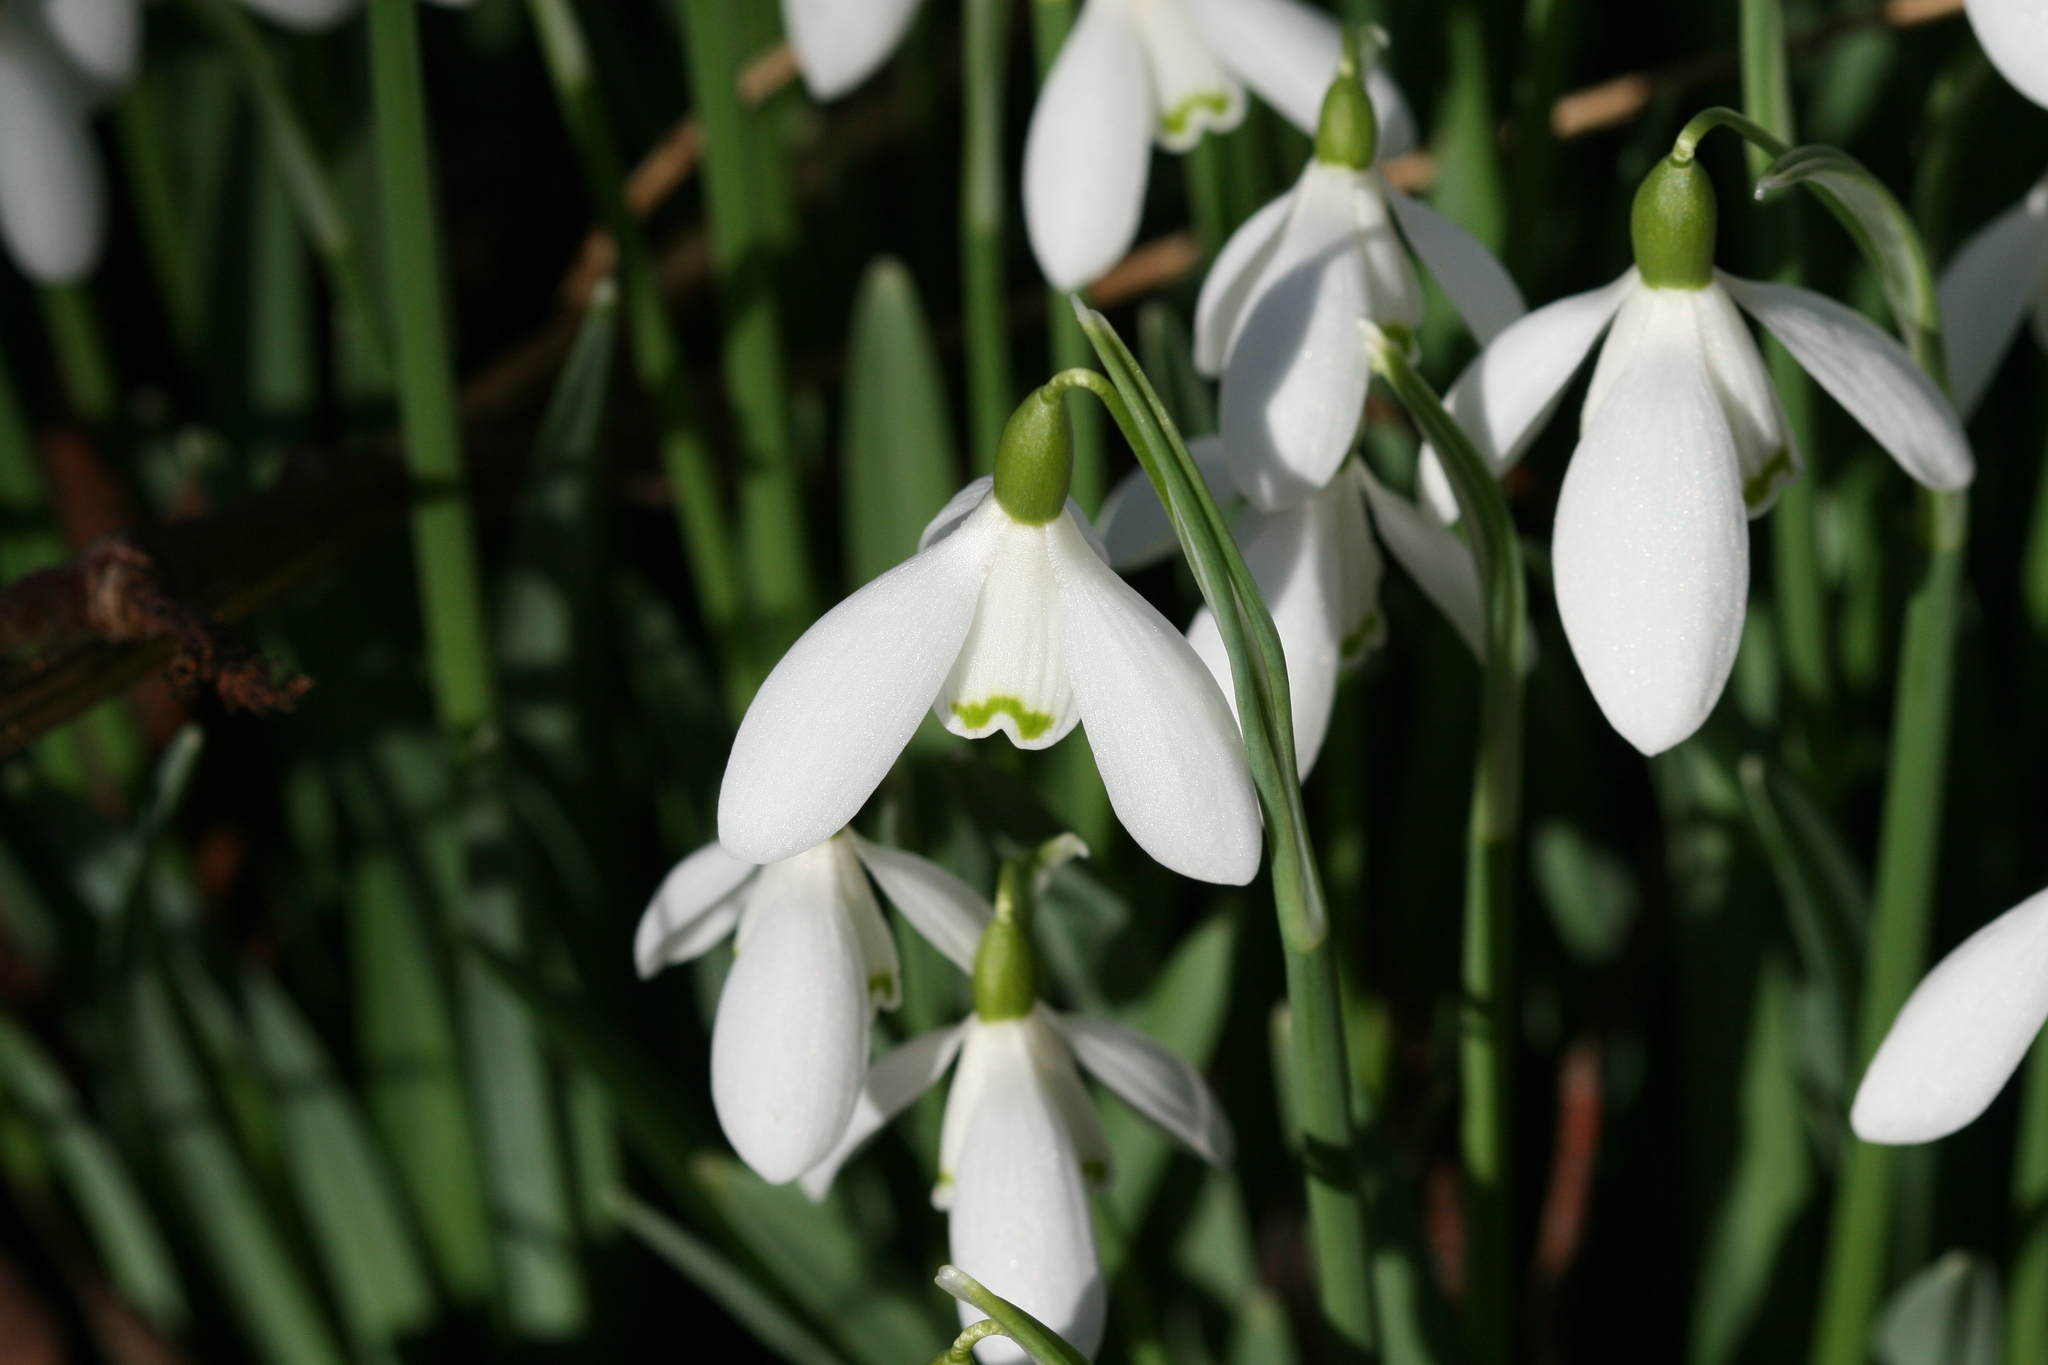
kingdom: Plantae
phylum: Tracheophyta
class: Liliopsida
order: Asparagales
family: Amaryllidaceae
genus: Galanthus
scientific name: Galanthus nivalis
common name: Snowdrop
